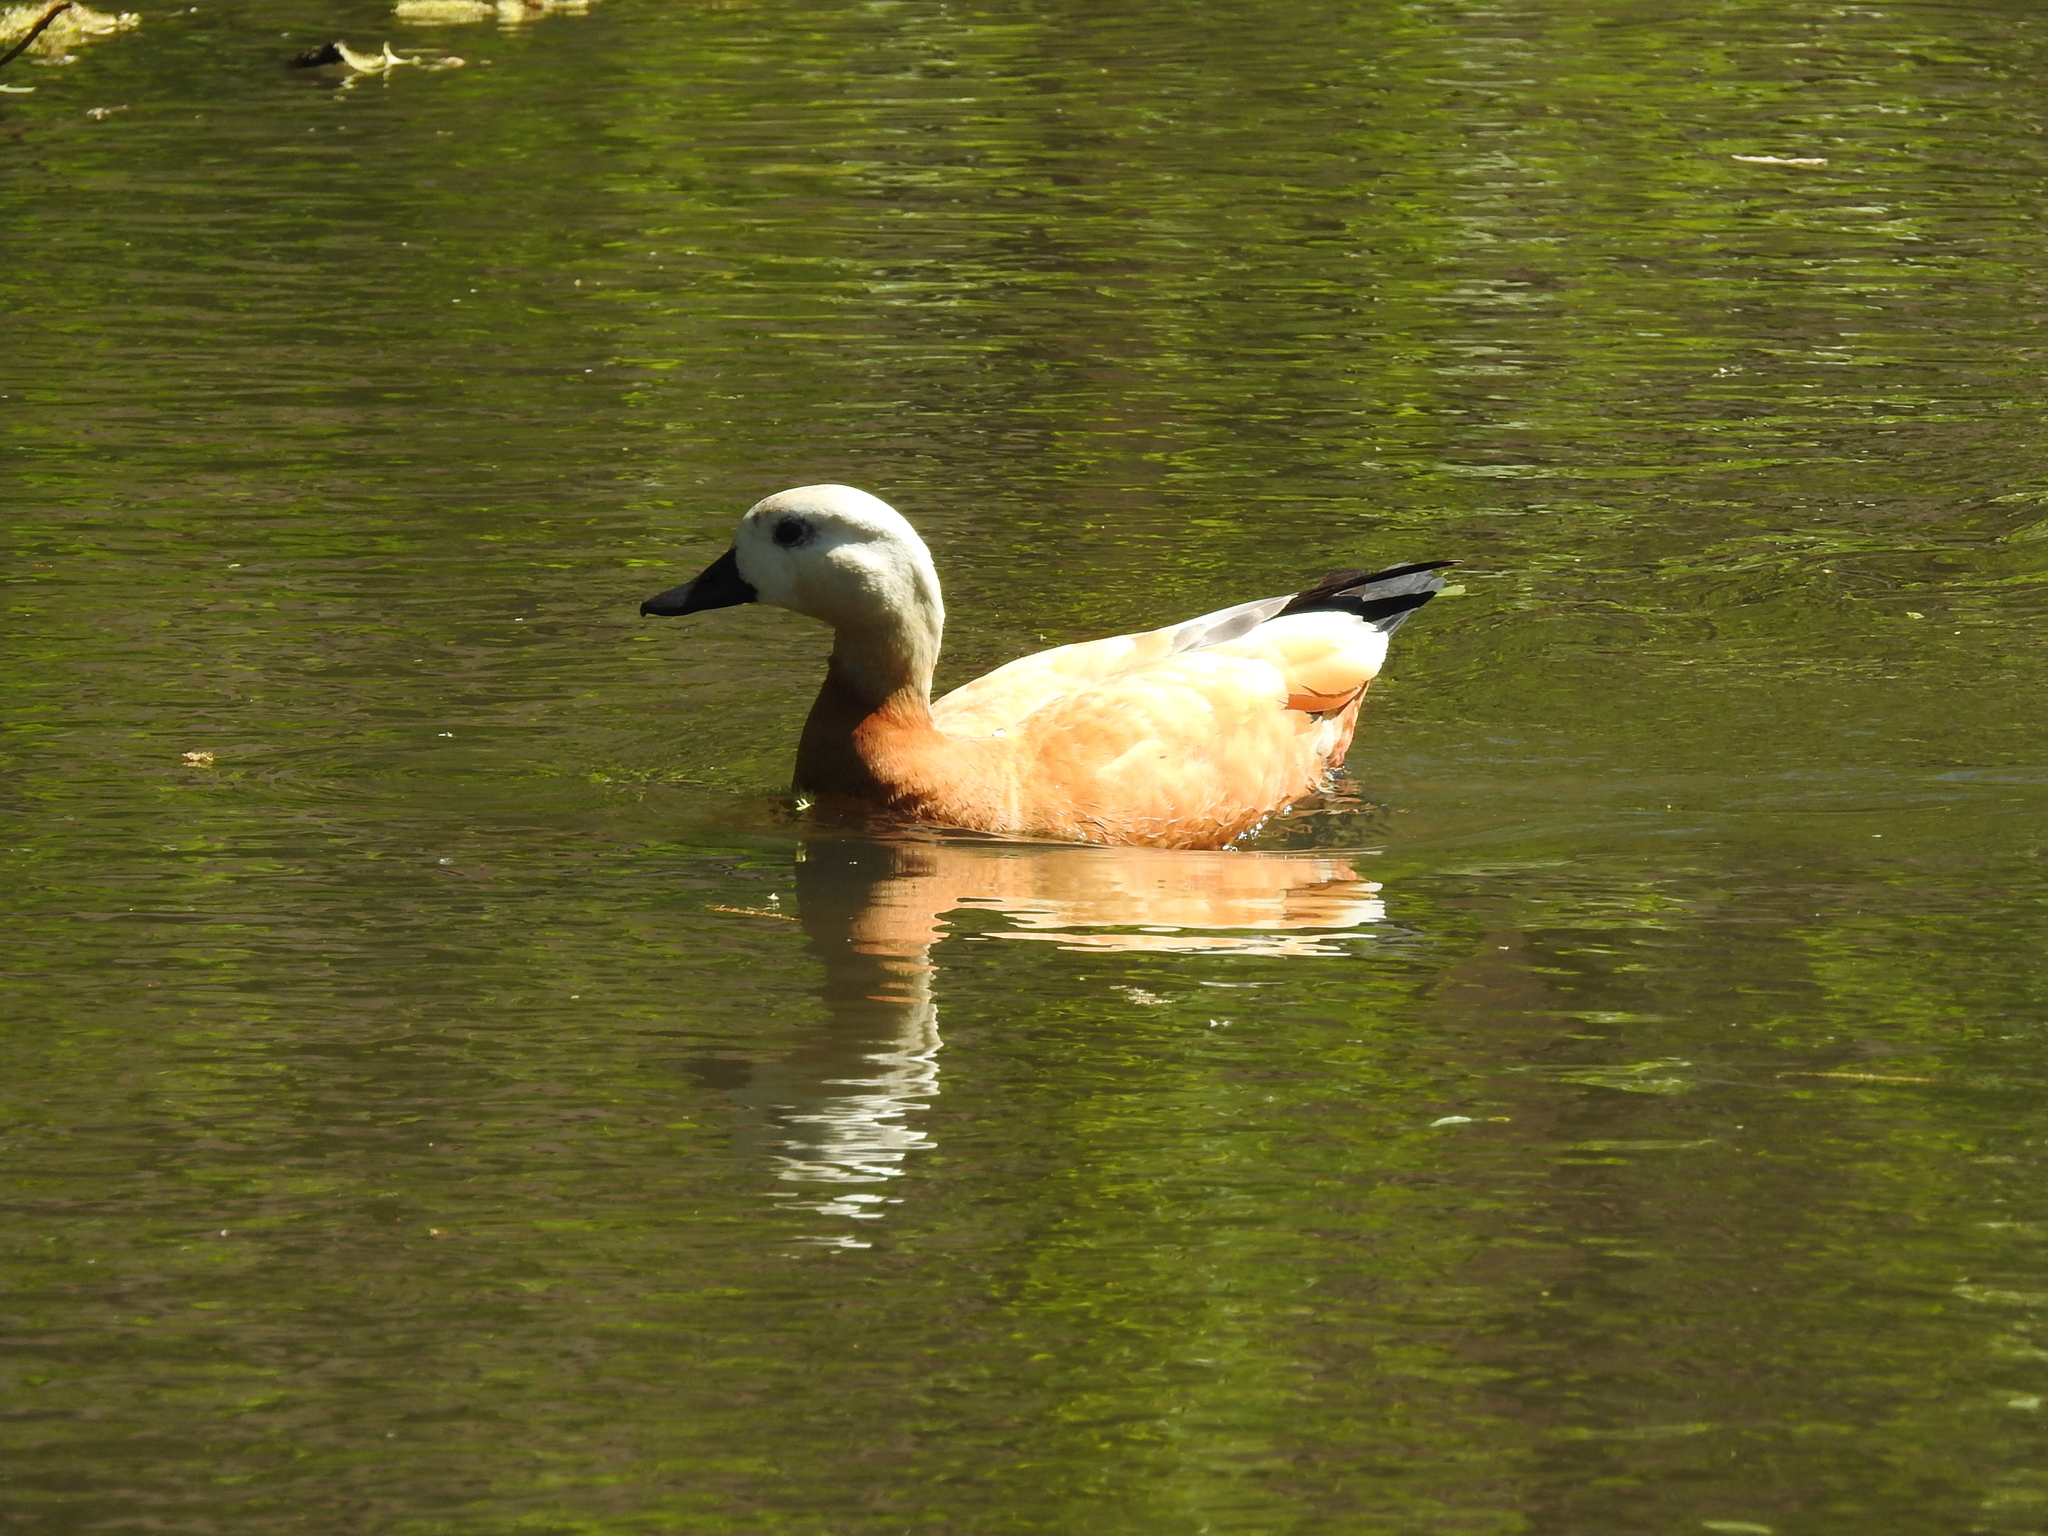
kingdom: Animalia
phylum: Chordata
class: Aves
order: Anseriformes
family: Anatidae
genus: Tadorna
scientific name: Tadorna ferruginea
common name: Ruddy shelduck
